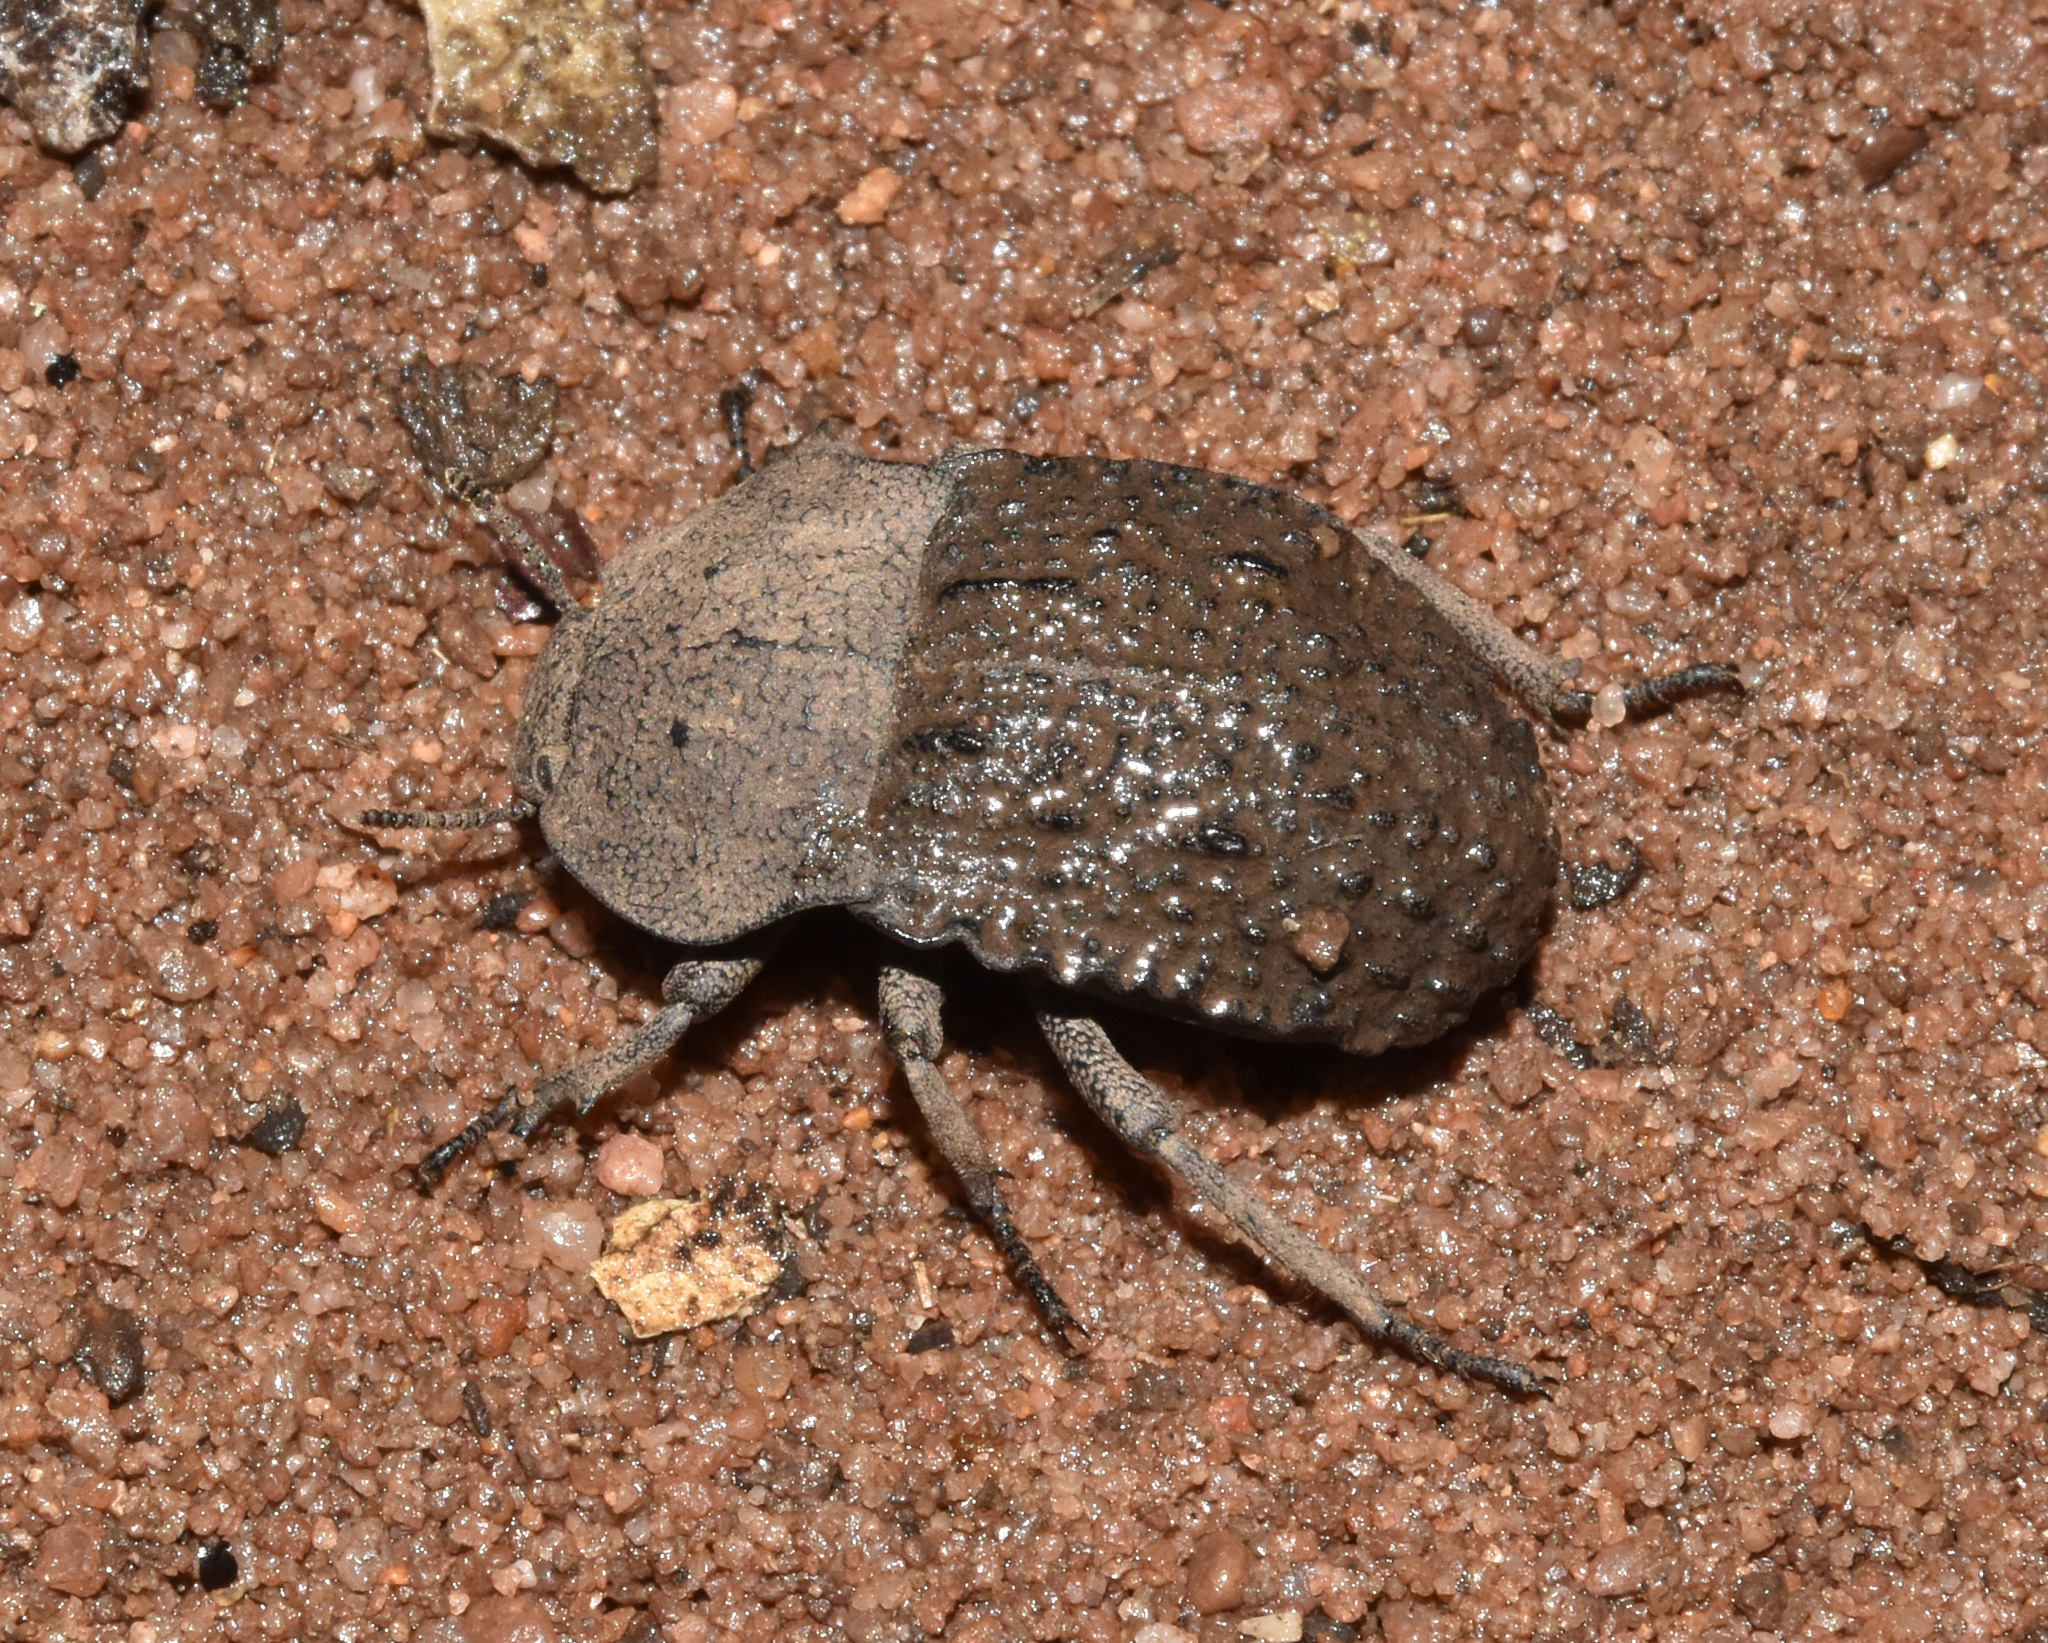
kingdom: Animalia
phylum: Arthropoda
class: Insecta
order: Coleoptera
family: Tenebrionidae
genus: Anomalipus
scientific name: Anomalipus
